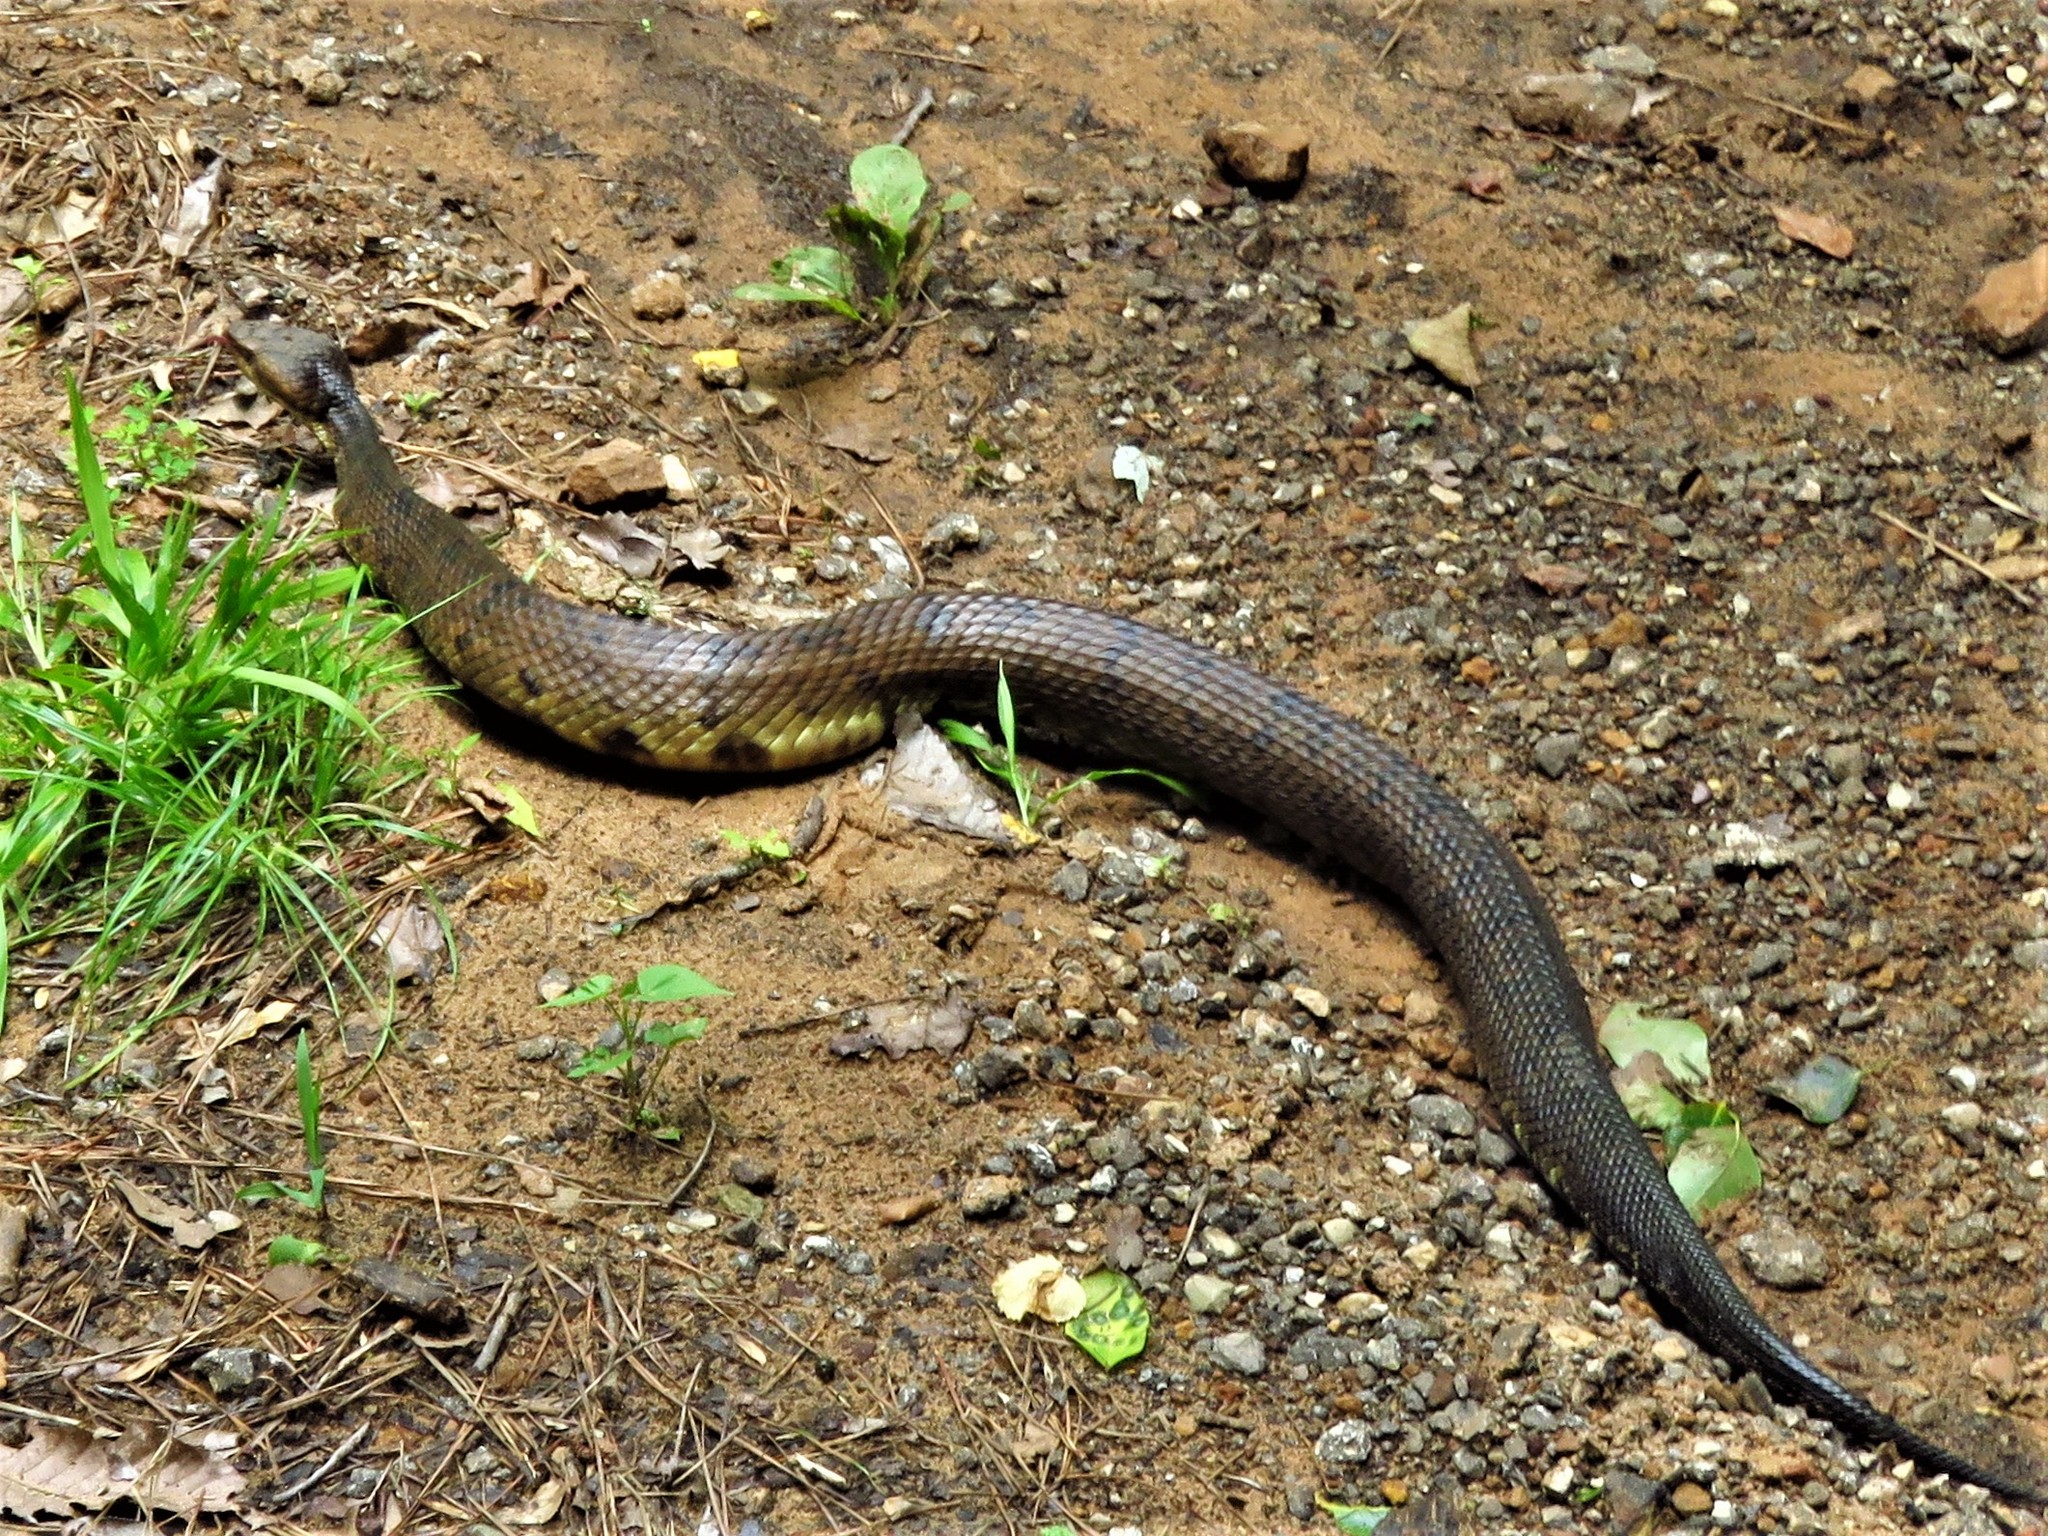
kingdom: Animalia
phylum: Chordata
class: Squamata
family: Viperidae
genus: Agkistrodon
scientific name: Agkistrodon piscivorus
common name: Cottonmouth
